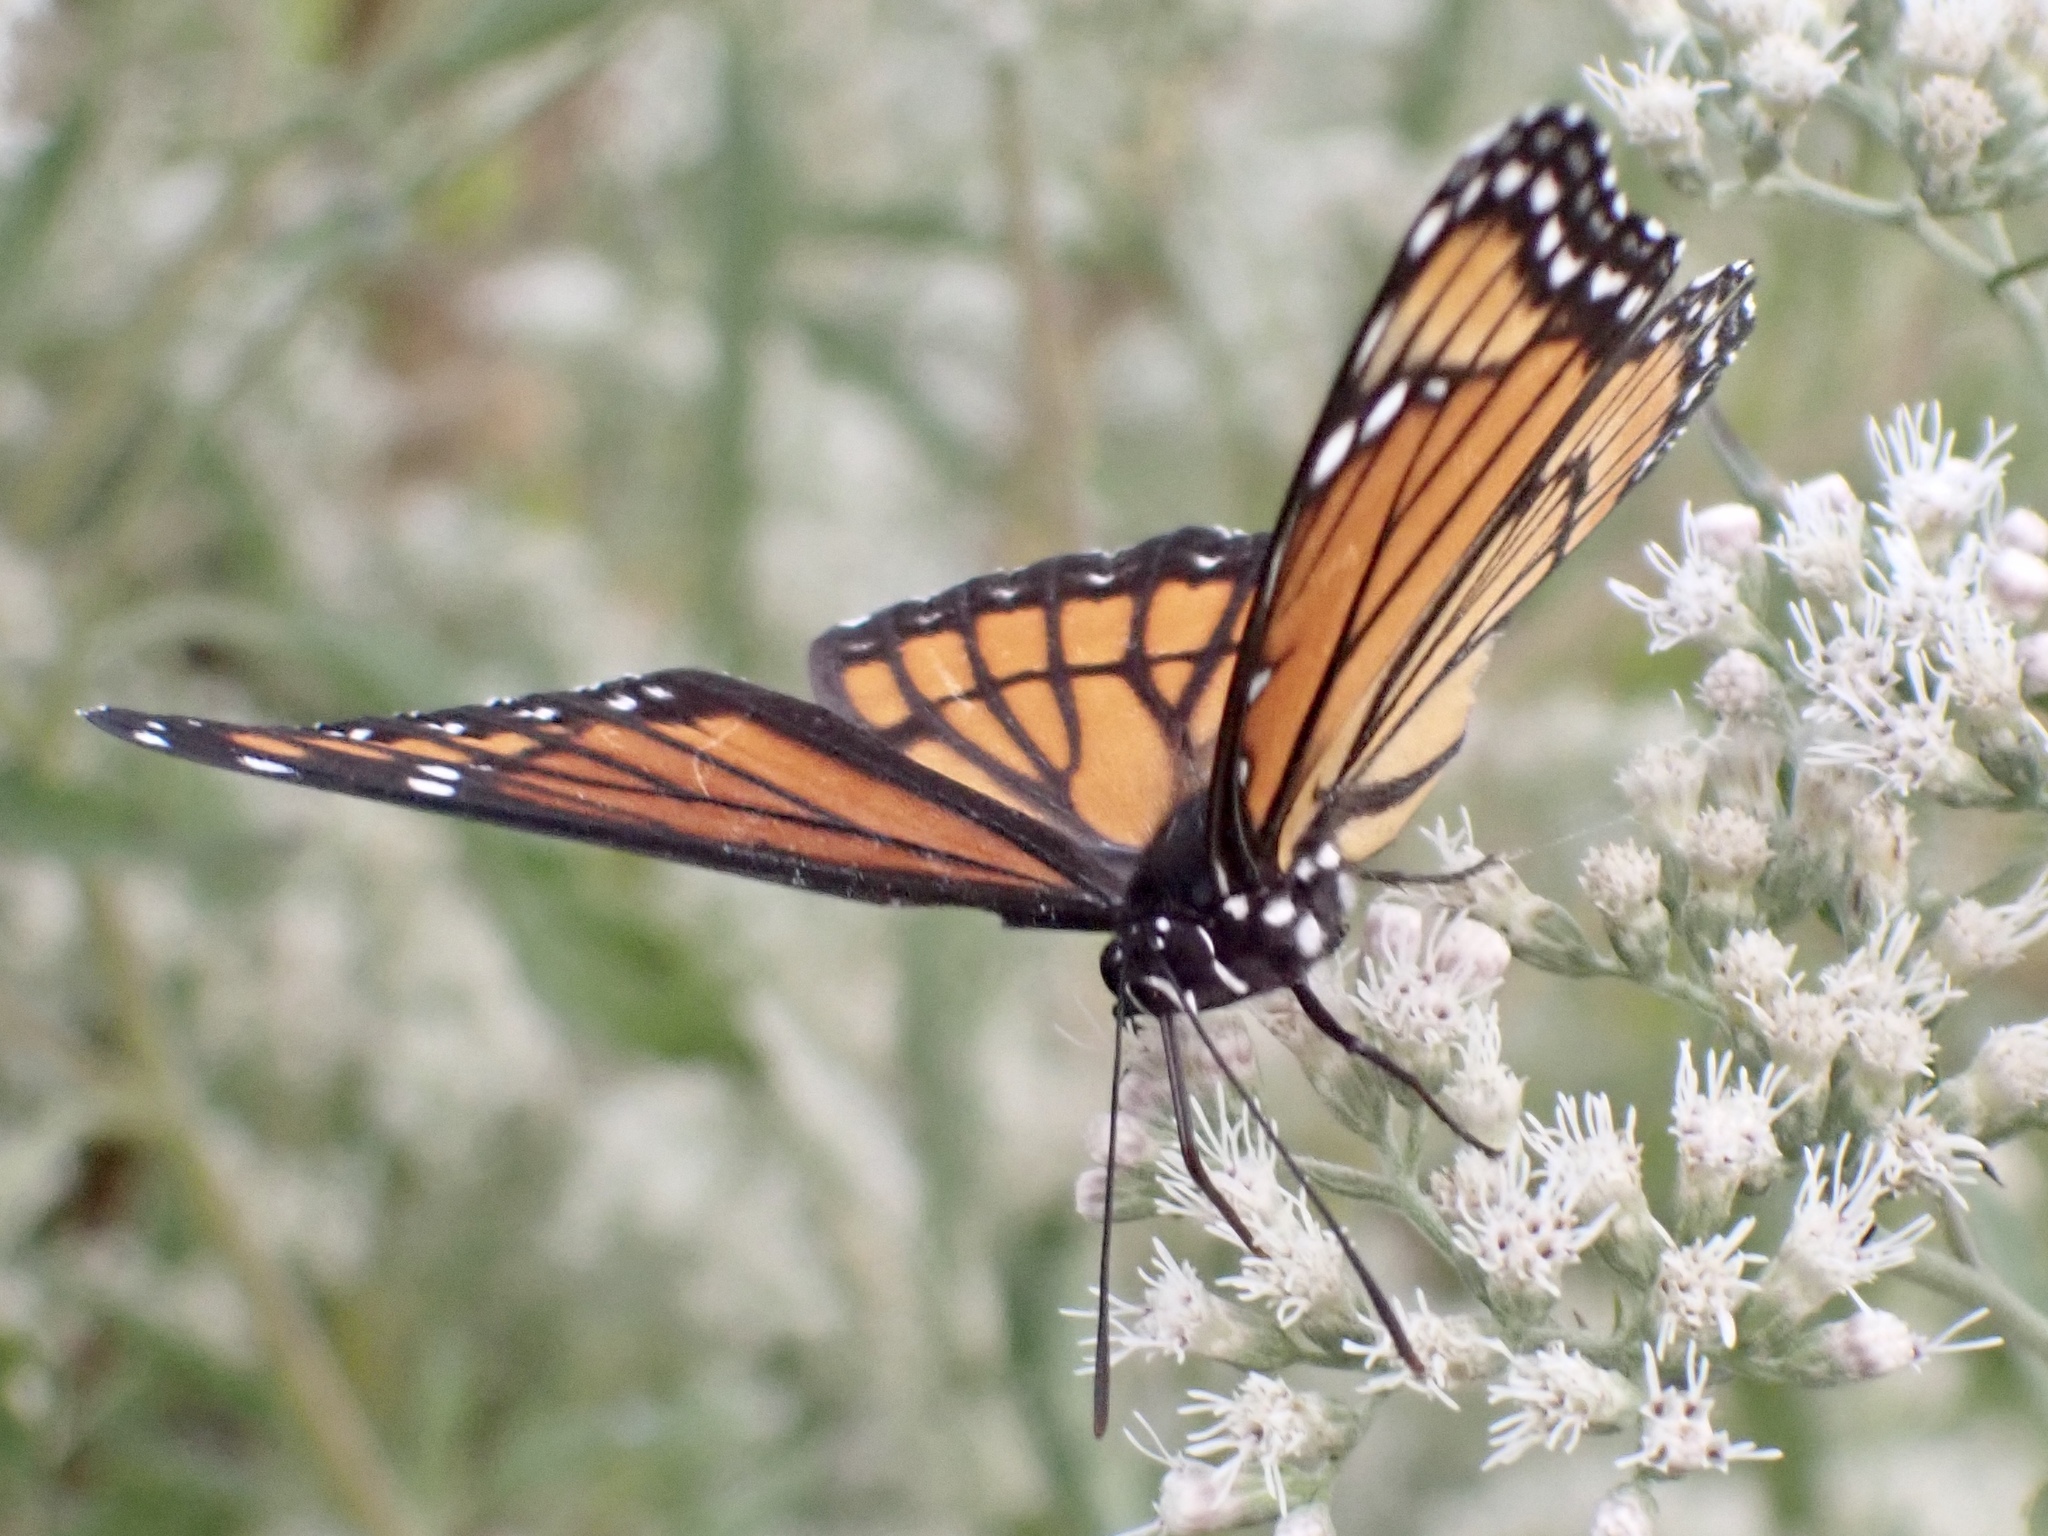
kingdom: Animalia
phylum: Arthropoda
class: Insecta
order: Lepidoptera
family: Nymphalidae
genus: Limenitis
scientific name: Limenitis archippus
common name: Viceroy
